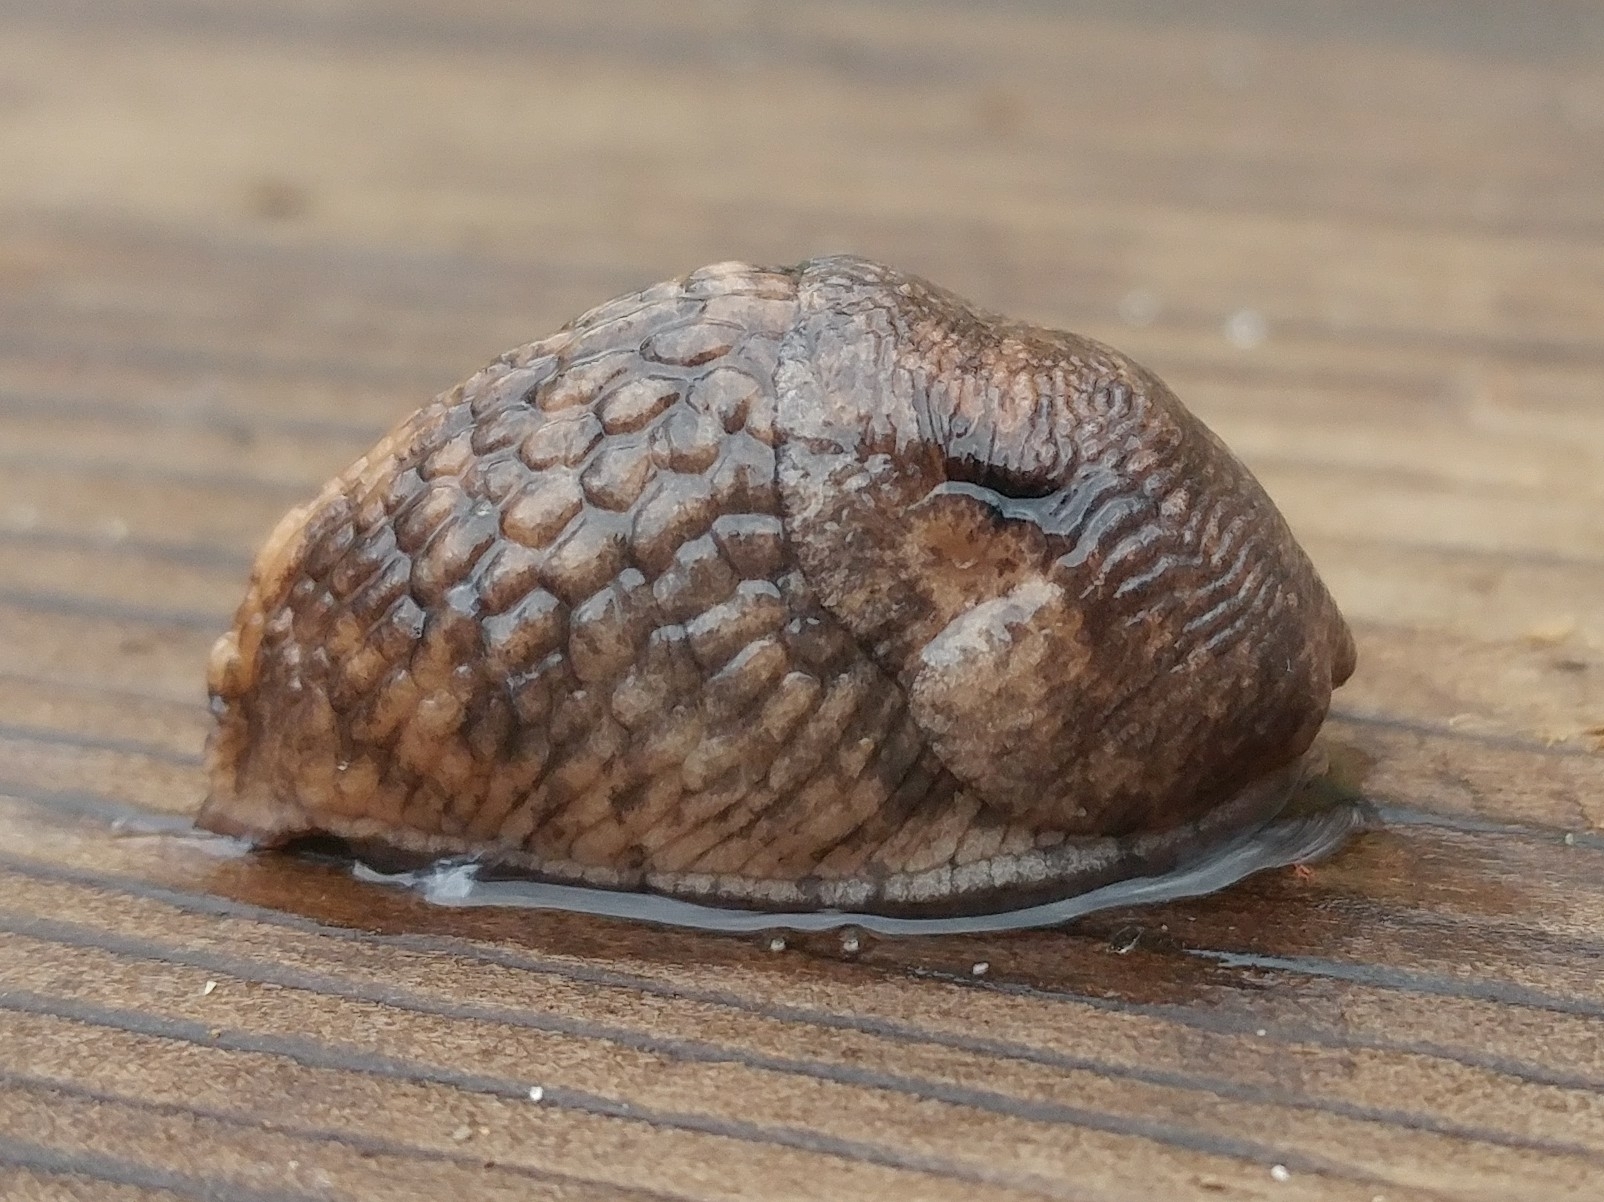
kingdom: Animalia
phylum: Mollusca
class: Gastropoda
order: Stylommatophora
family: Agriolimacidae
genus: Deroceras
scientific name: Deroceras reticulatum
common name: Gray field slug
